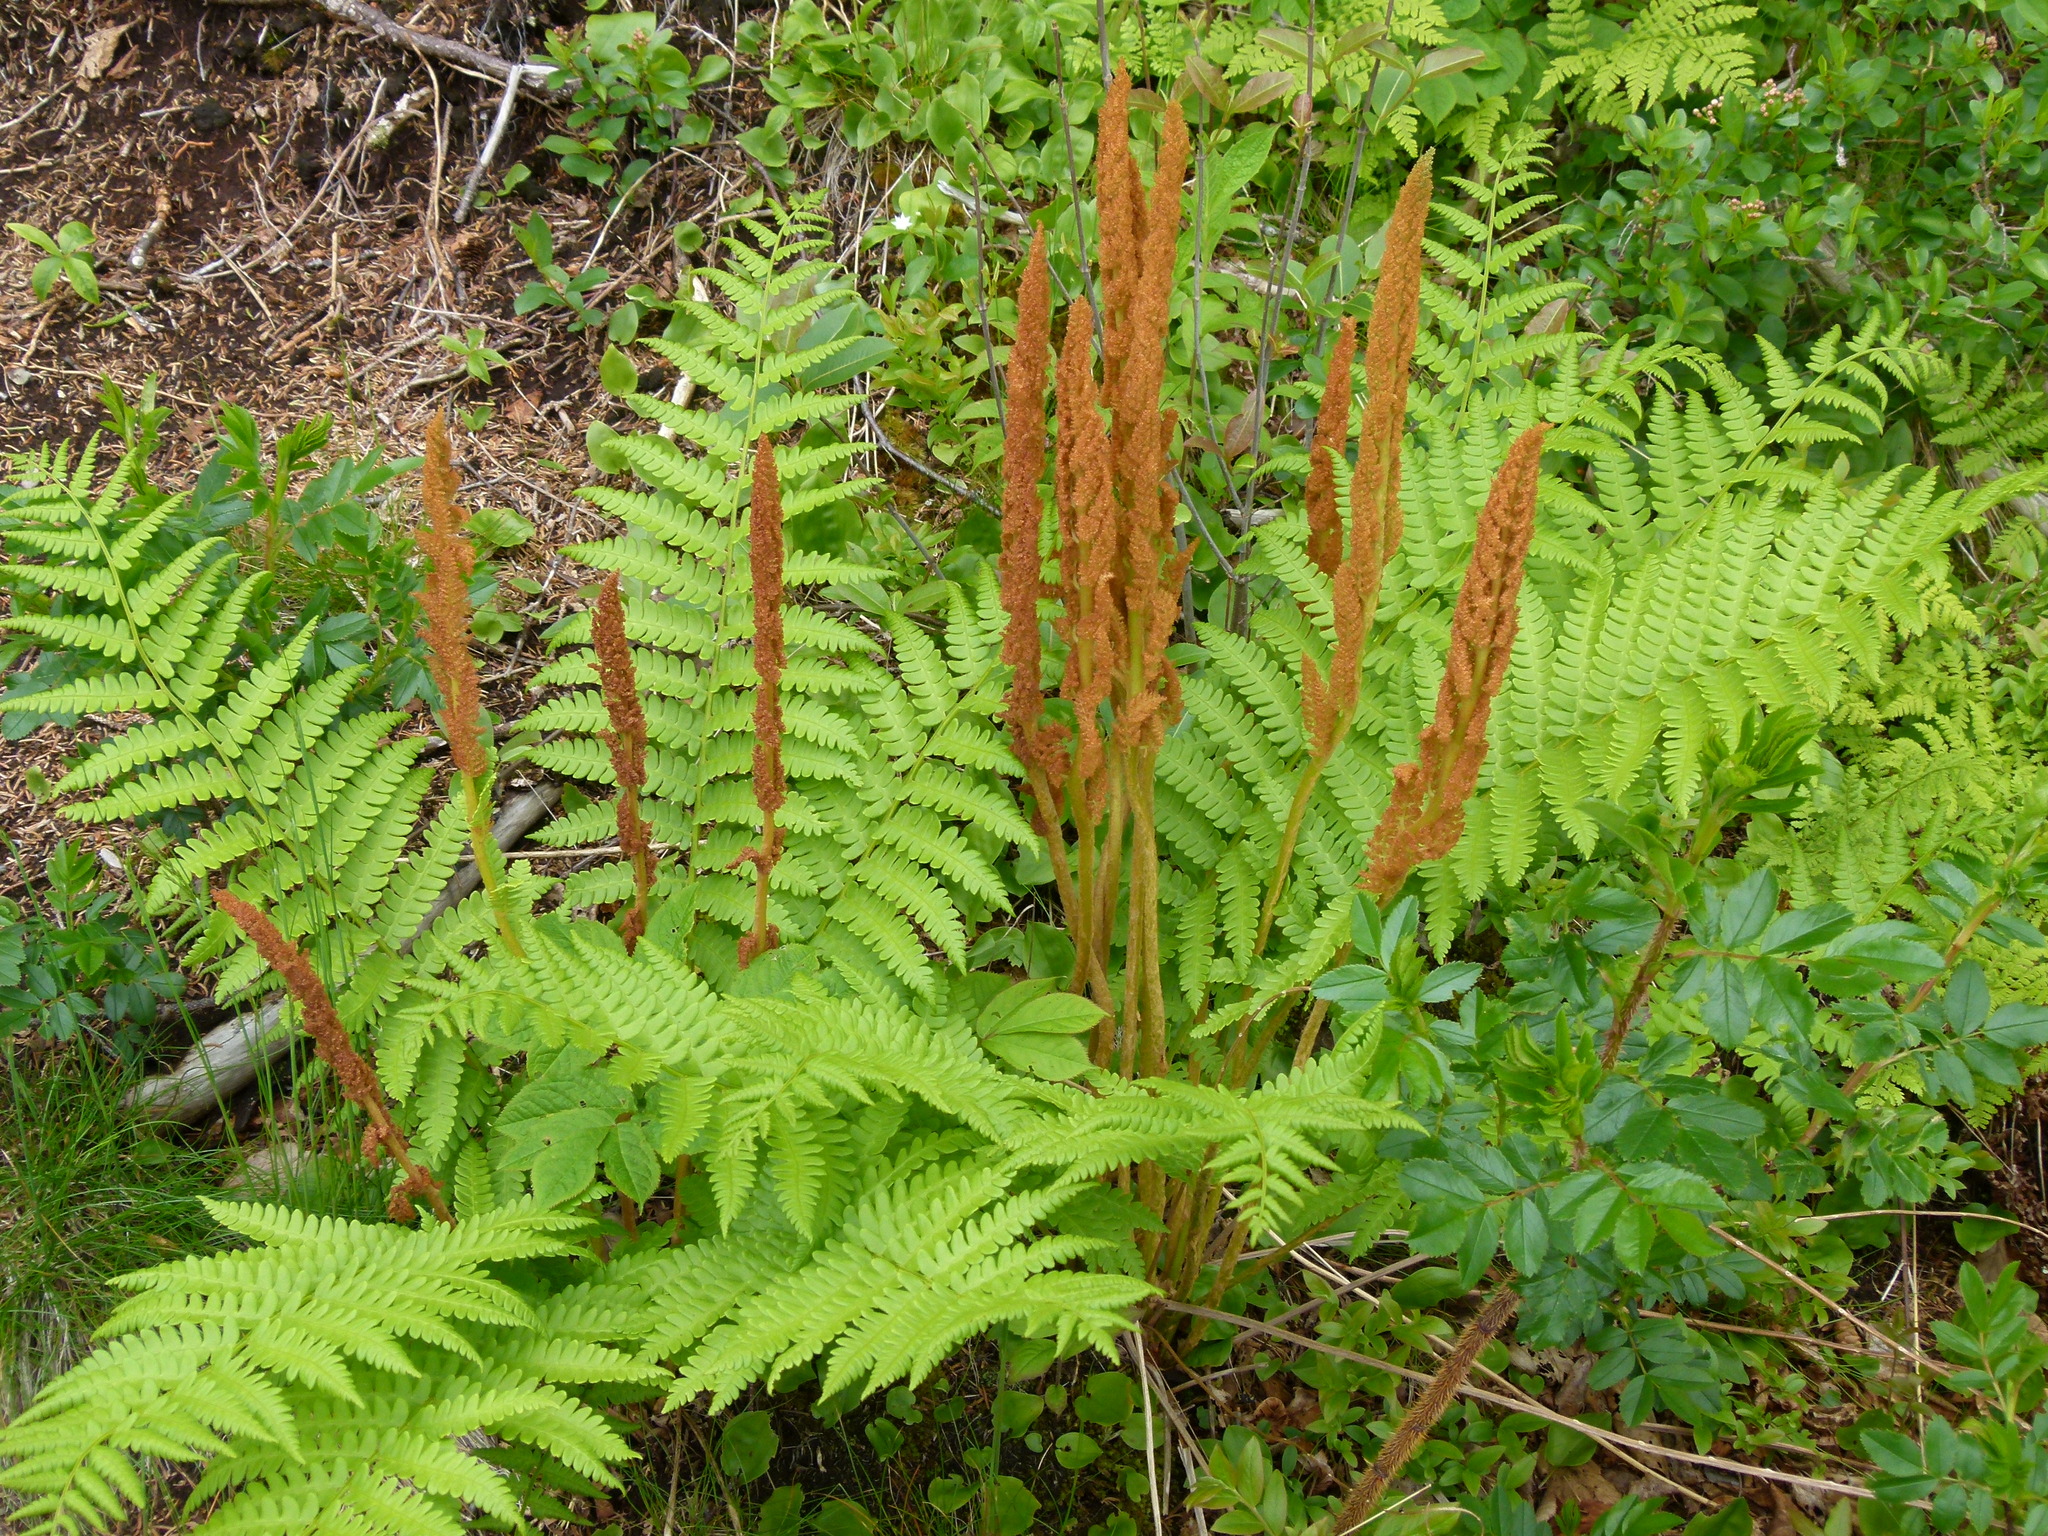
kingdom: Plantae
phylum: Tracheophyta
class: Polypodiopsida
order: Osmundales
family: Osmundaceae
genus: Osmundastrum
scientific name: Osmundastrum cinnamomeum
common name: Cinnamon fern
